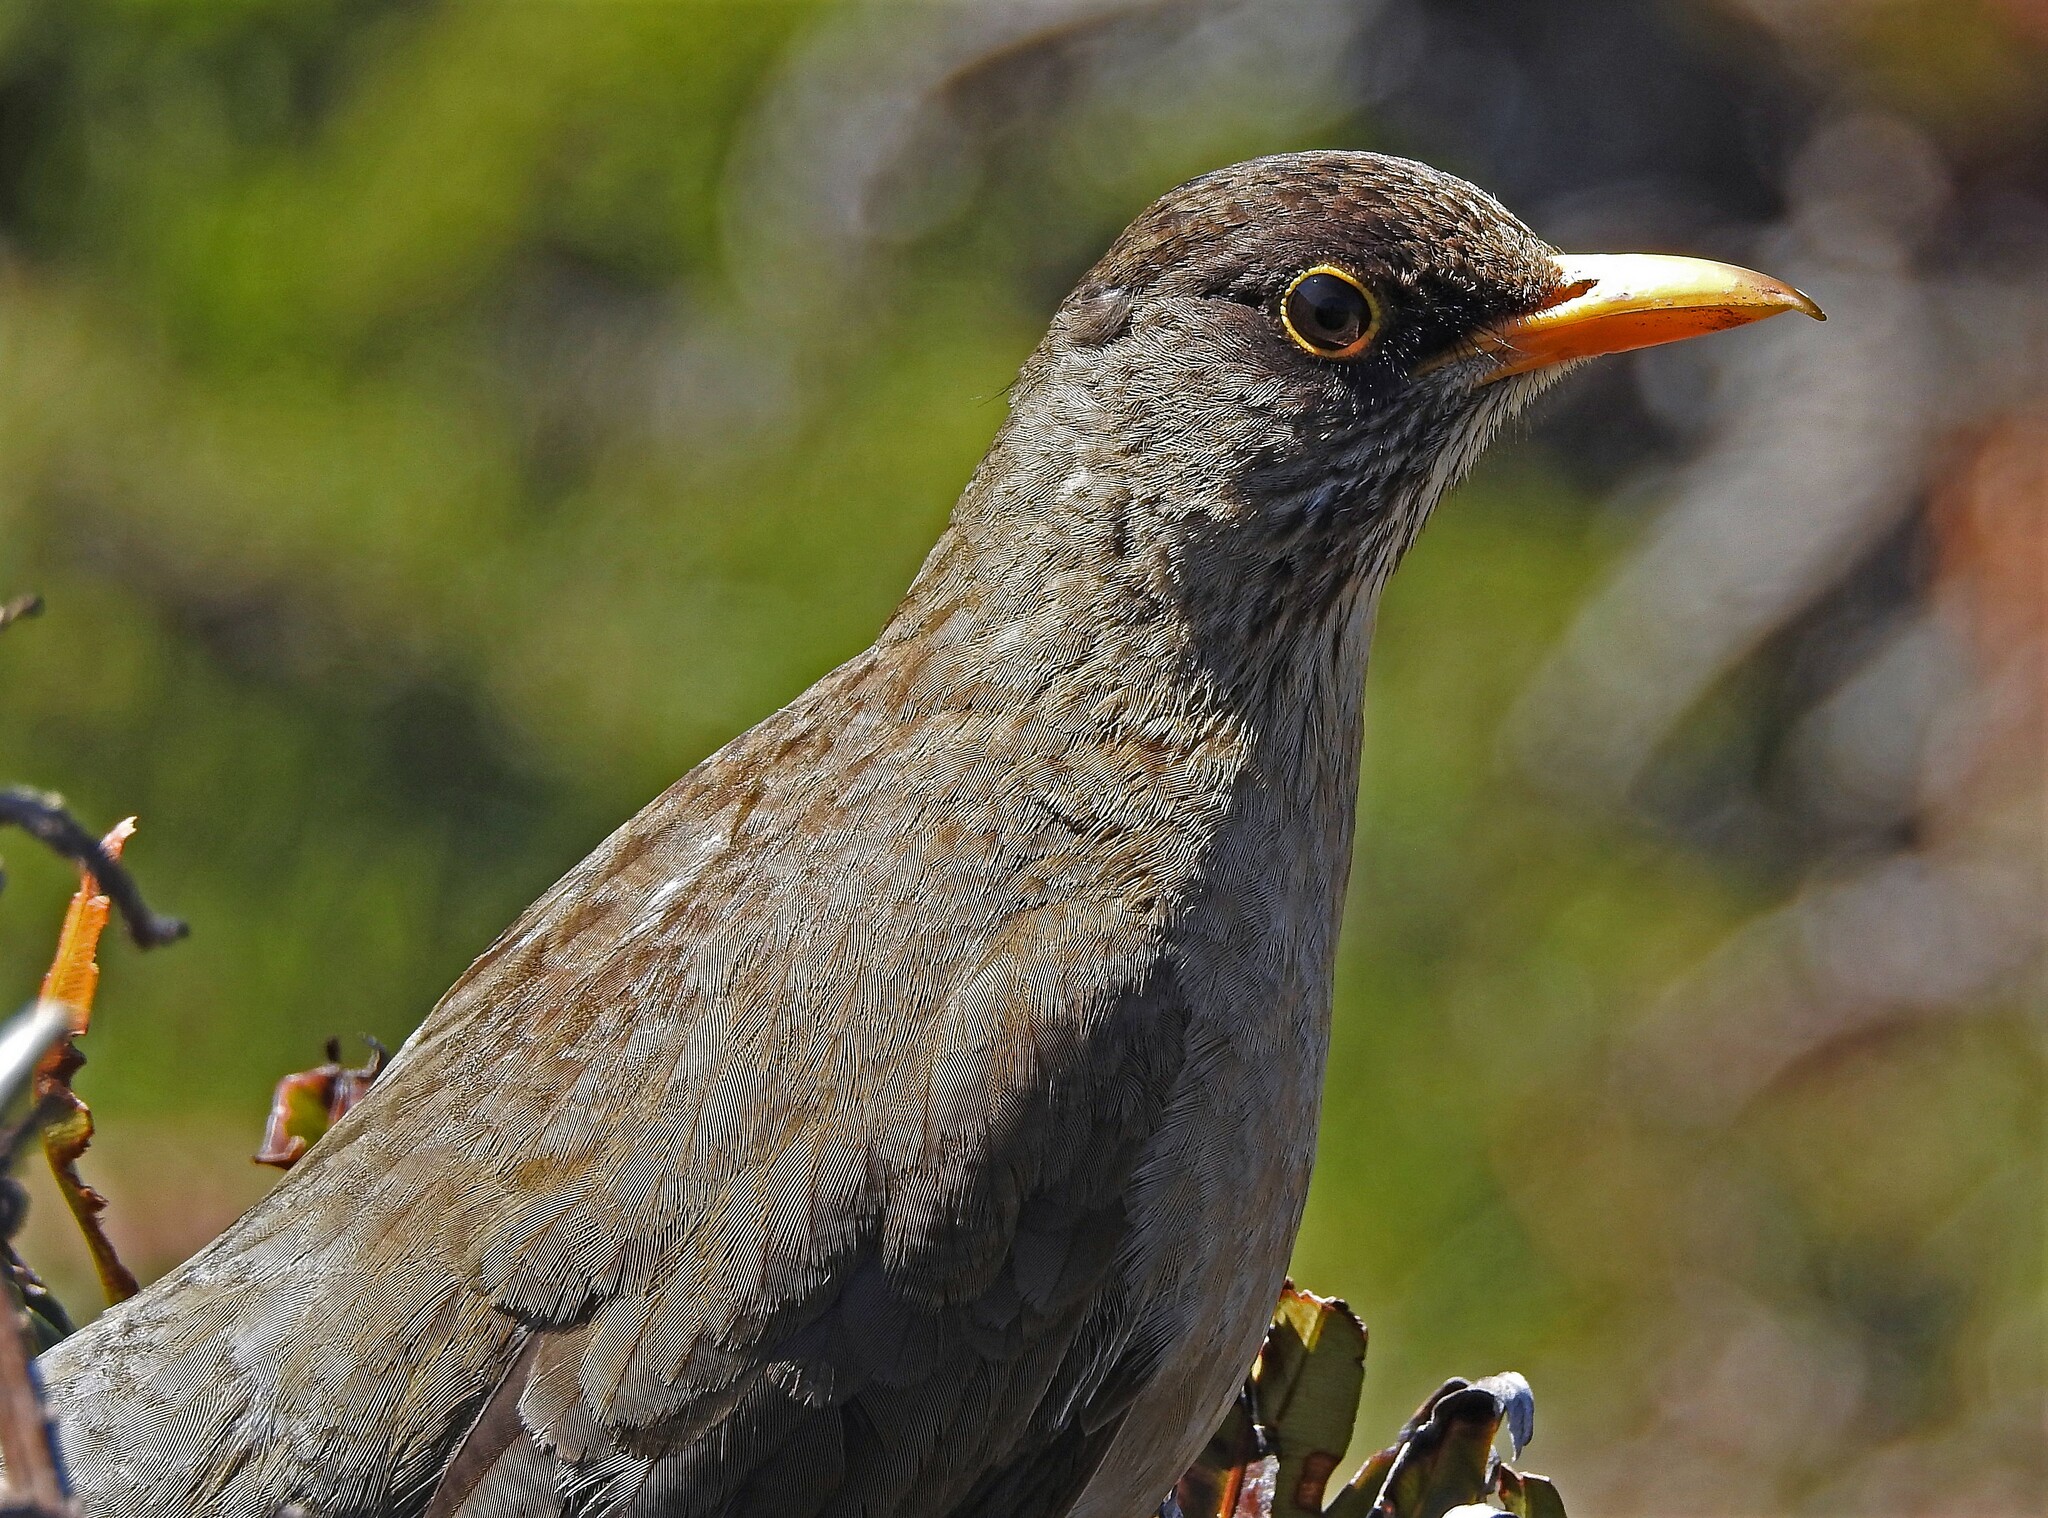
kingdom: Animalia
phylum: Chordata
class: Aves
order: Passeriformes
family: Turdidae
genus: Turdus
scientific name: Turdus falcklandii
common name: Austral thrush
